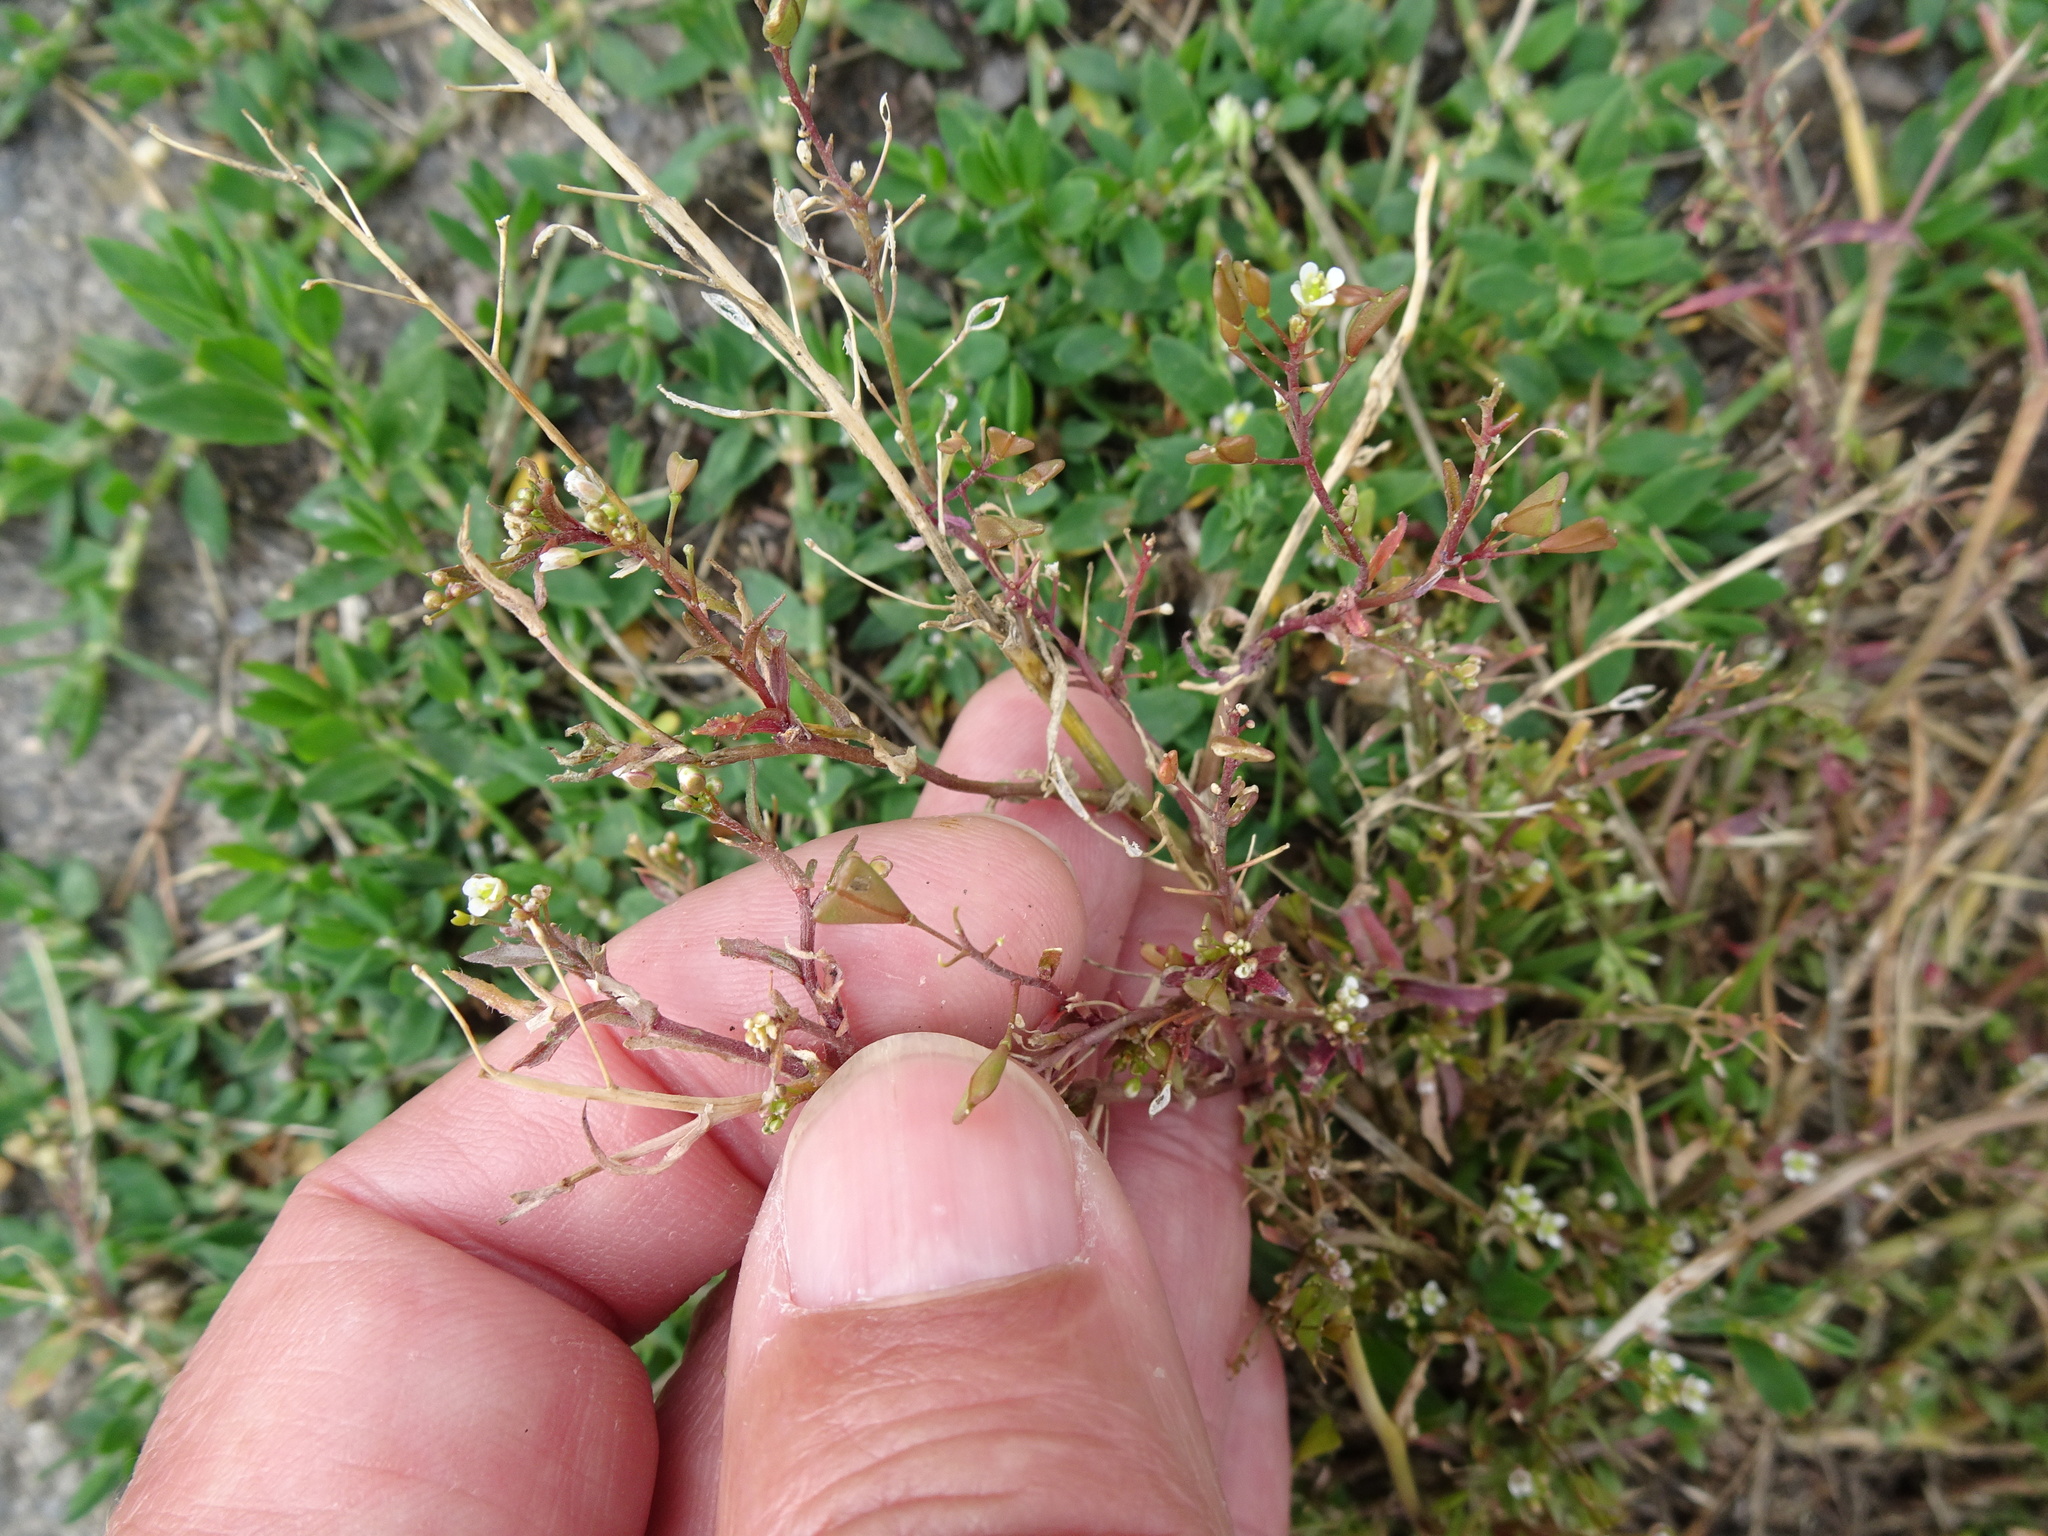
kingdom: Plantae
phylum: Tracheophyta
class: Magnoliopsida
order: Brassicales
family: Brassicaceae
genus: Capsella
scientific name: Capsella bursa-pastoris
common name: Shepherd's purse
